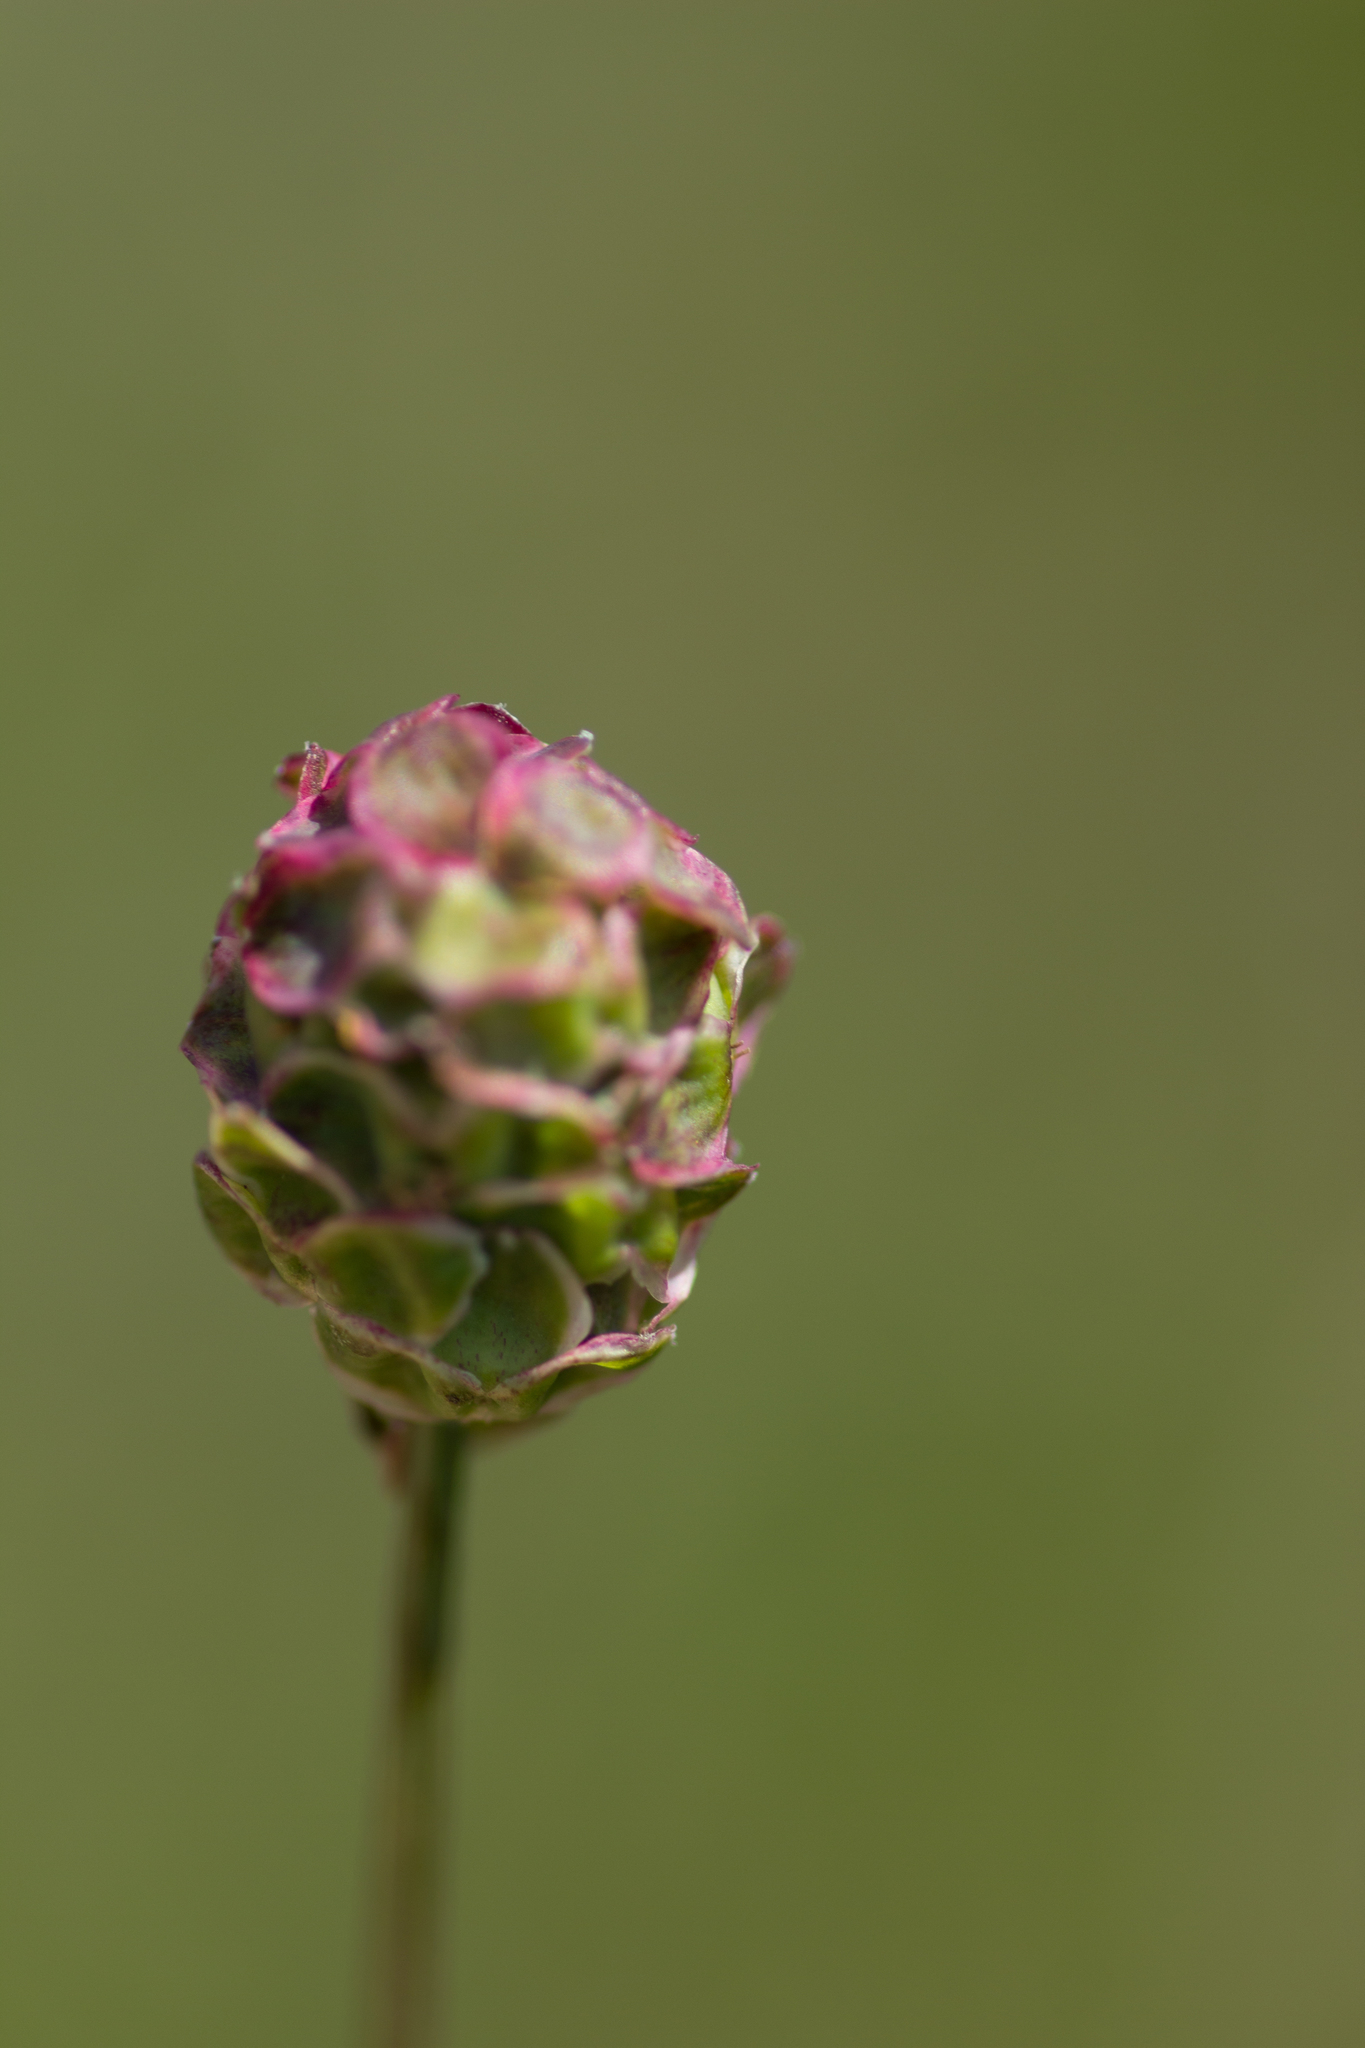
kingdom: Plantae
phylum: Tracheophyta
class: Magnoliopsida
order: Rosales
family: Rosaceae
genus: Poterium
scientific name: Poterium sanguisorba
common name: Salad burnet
